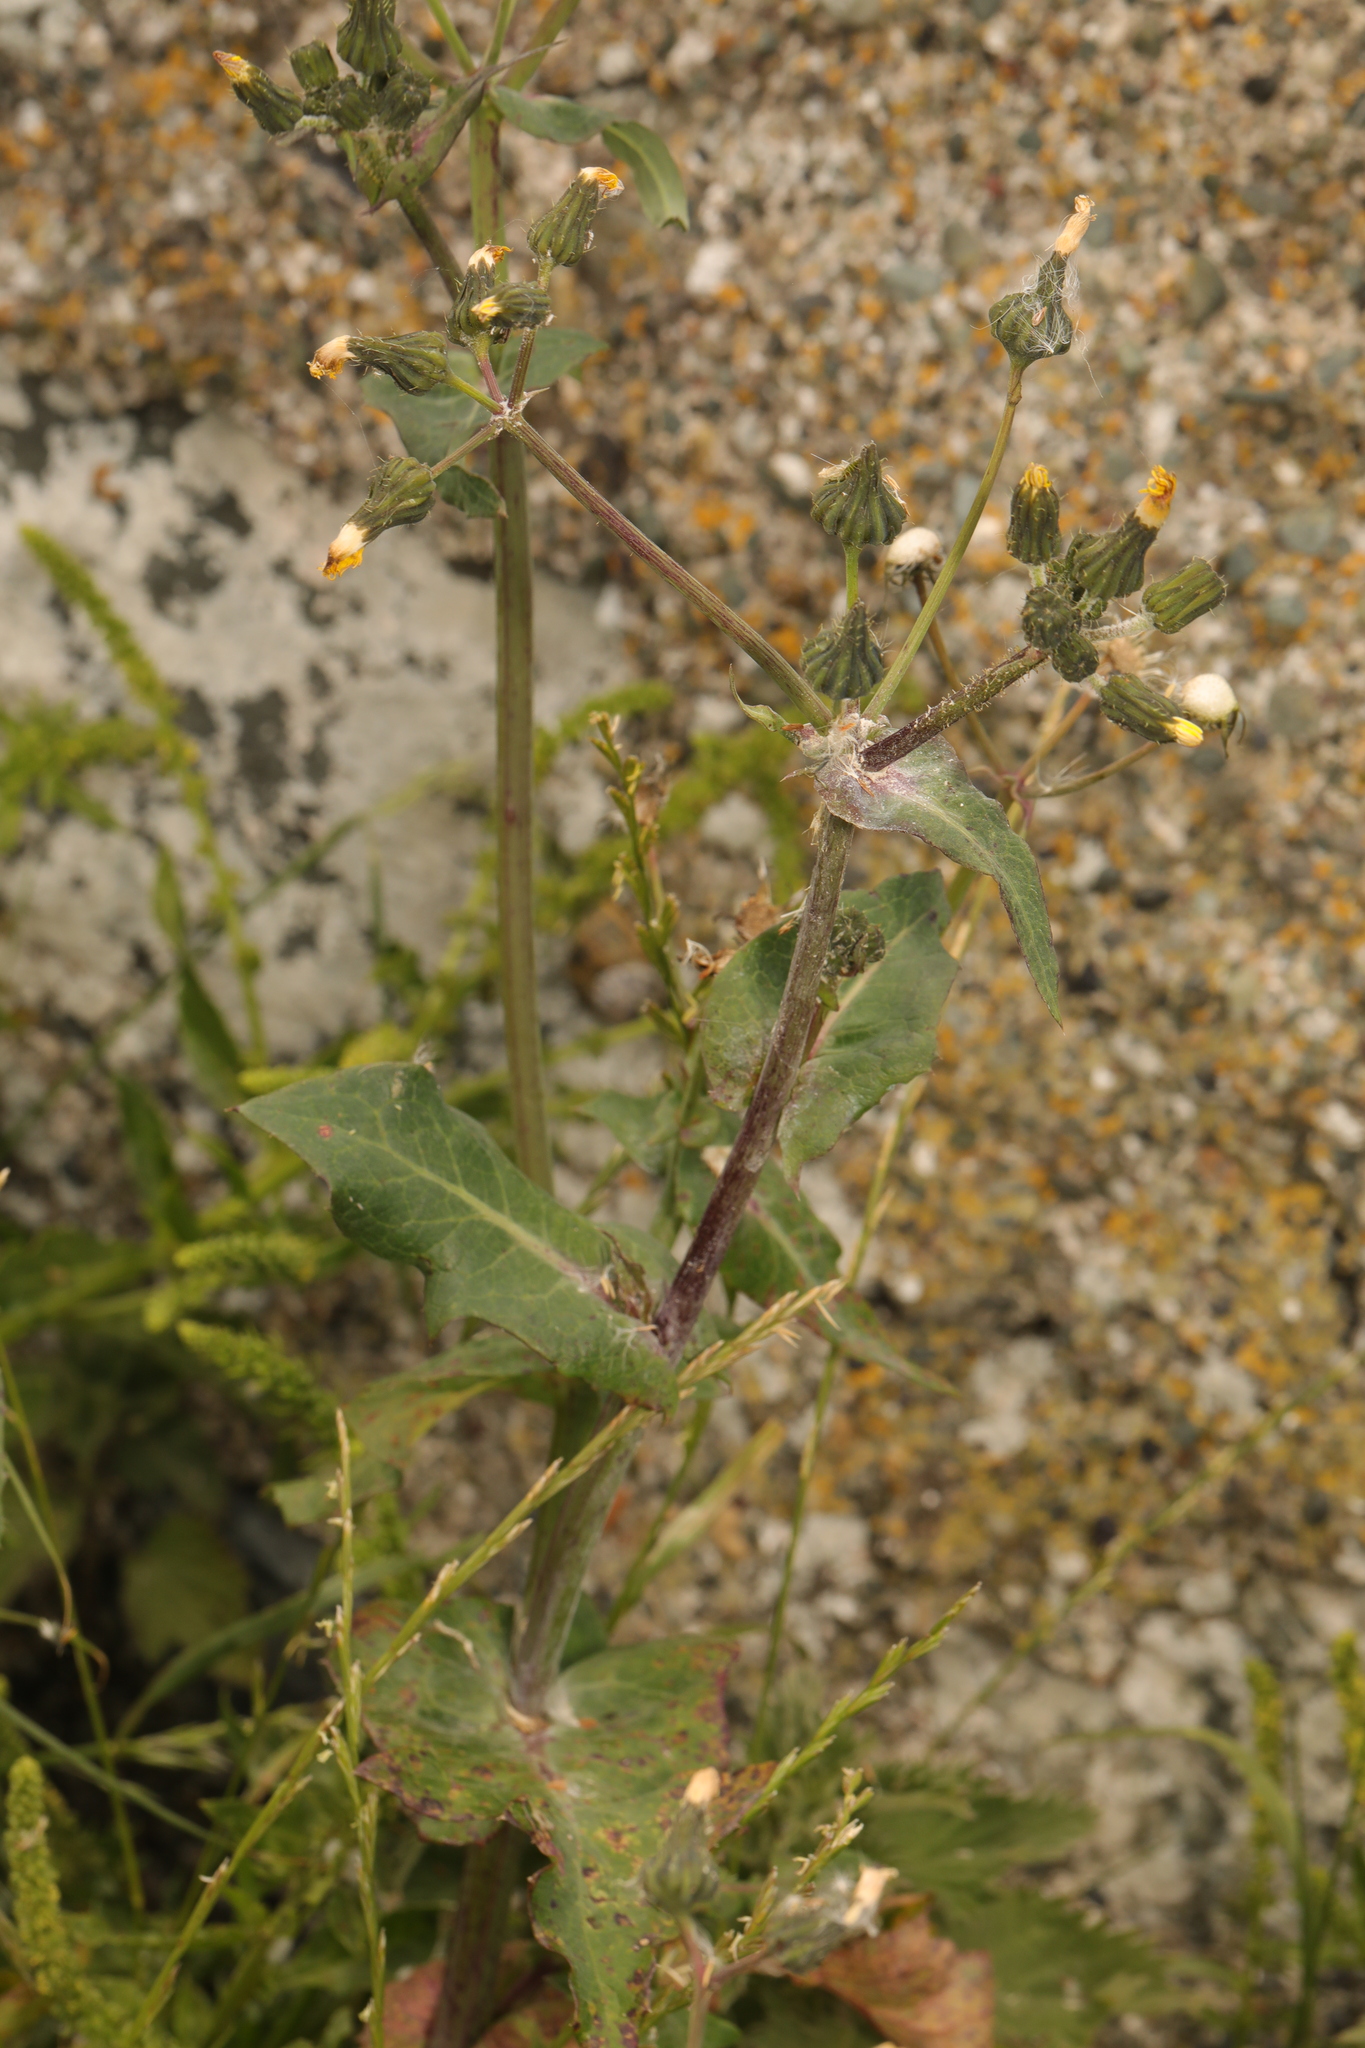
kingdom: Plantae
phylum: Tracheophyta
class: Magnoliopsida
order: Asterales
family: Asteraceae
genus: Sonchus
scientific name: Sonchus oleraceus
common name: Common sowthistle
